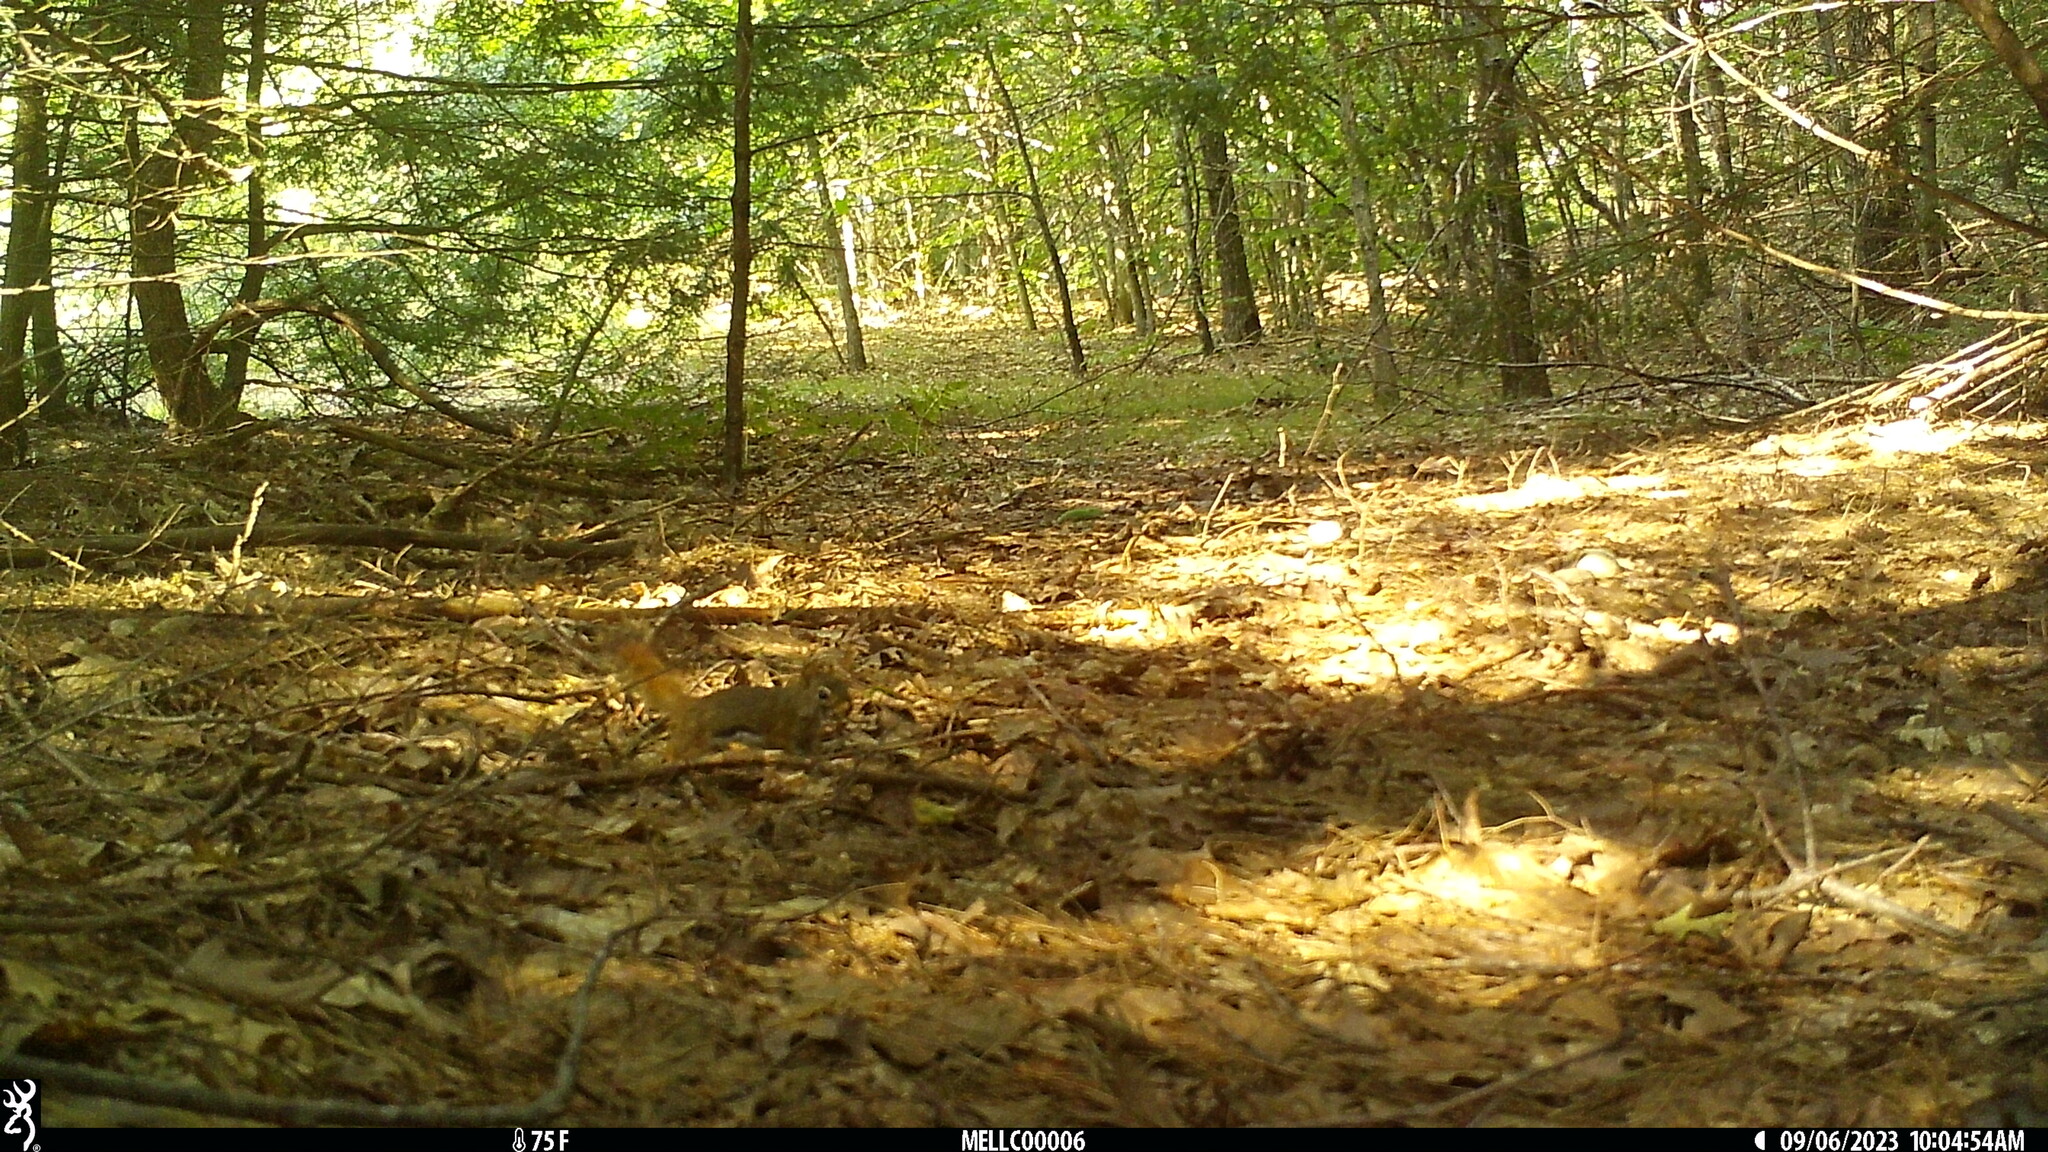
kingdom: Animalia
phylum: Chordata
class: Mammalia
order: Rodentia
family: Sciuridae
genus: Tamiasciurus
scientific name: Tamiasciurus hudsonicus
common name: Red squirrel
